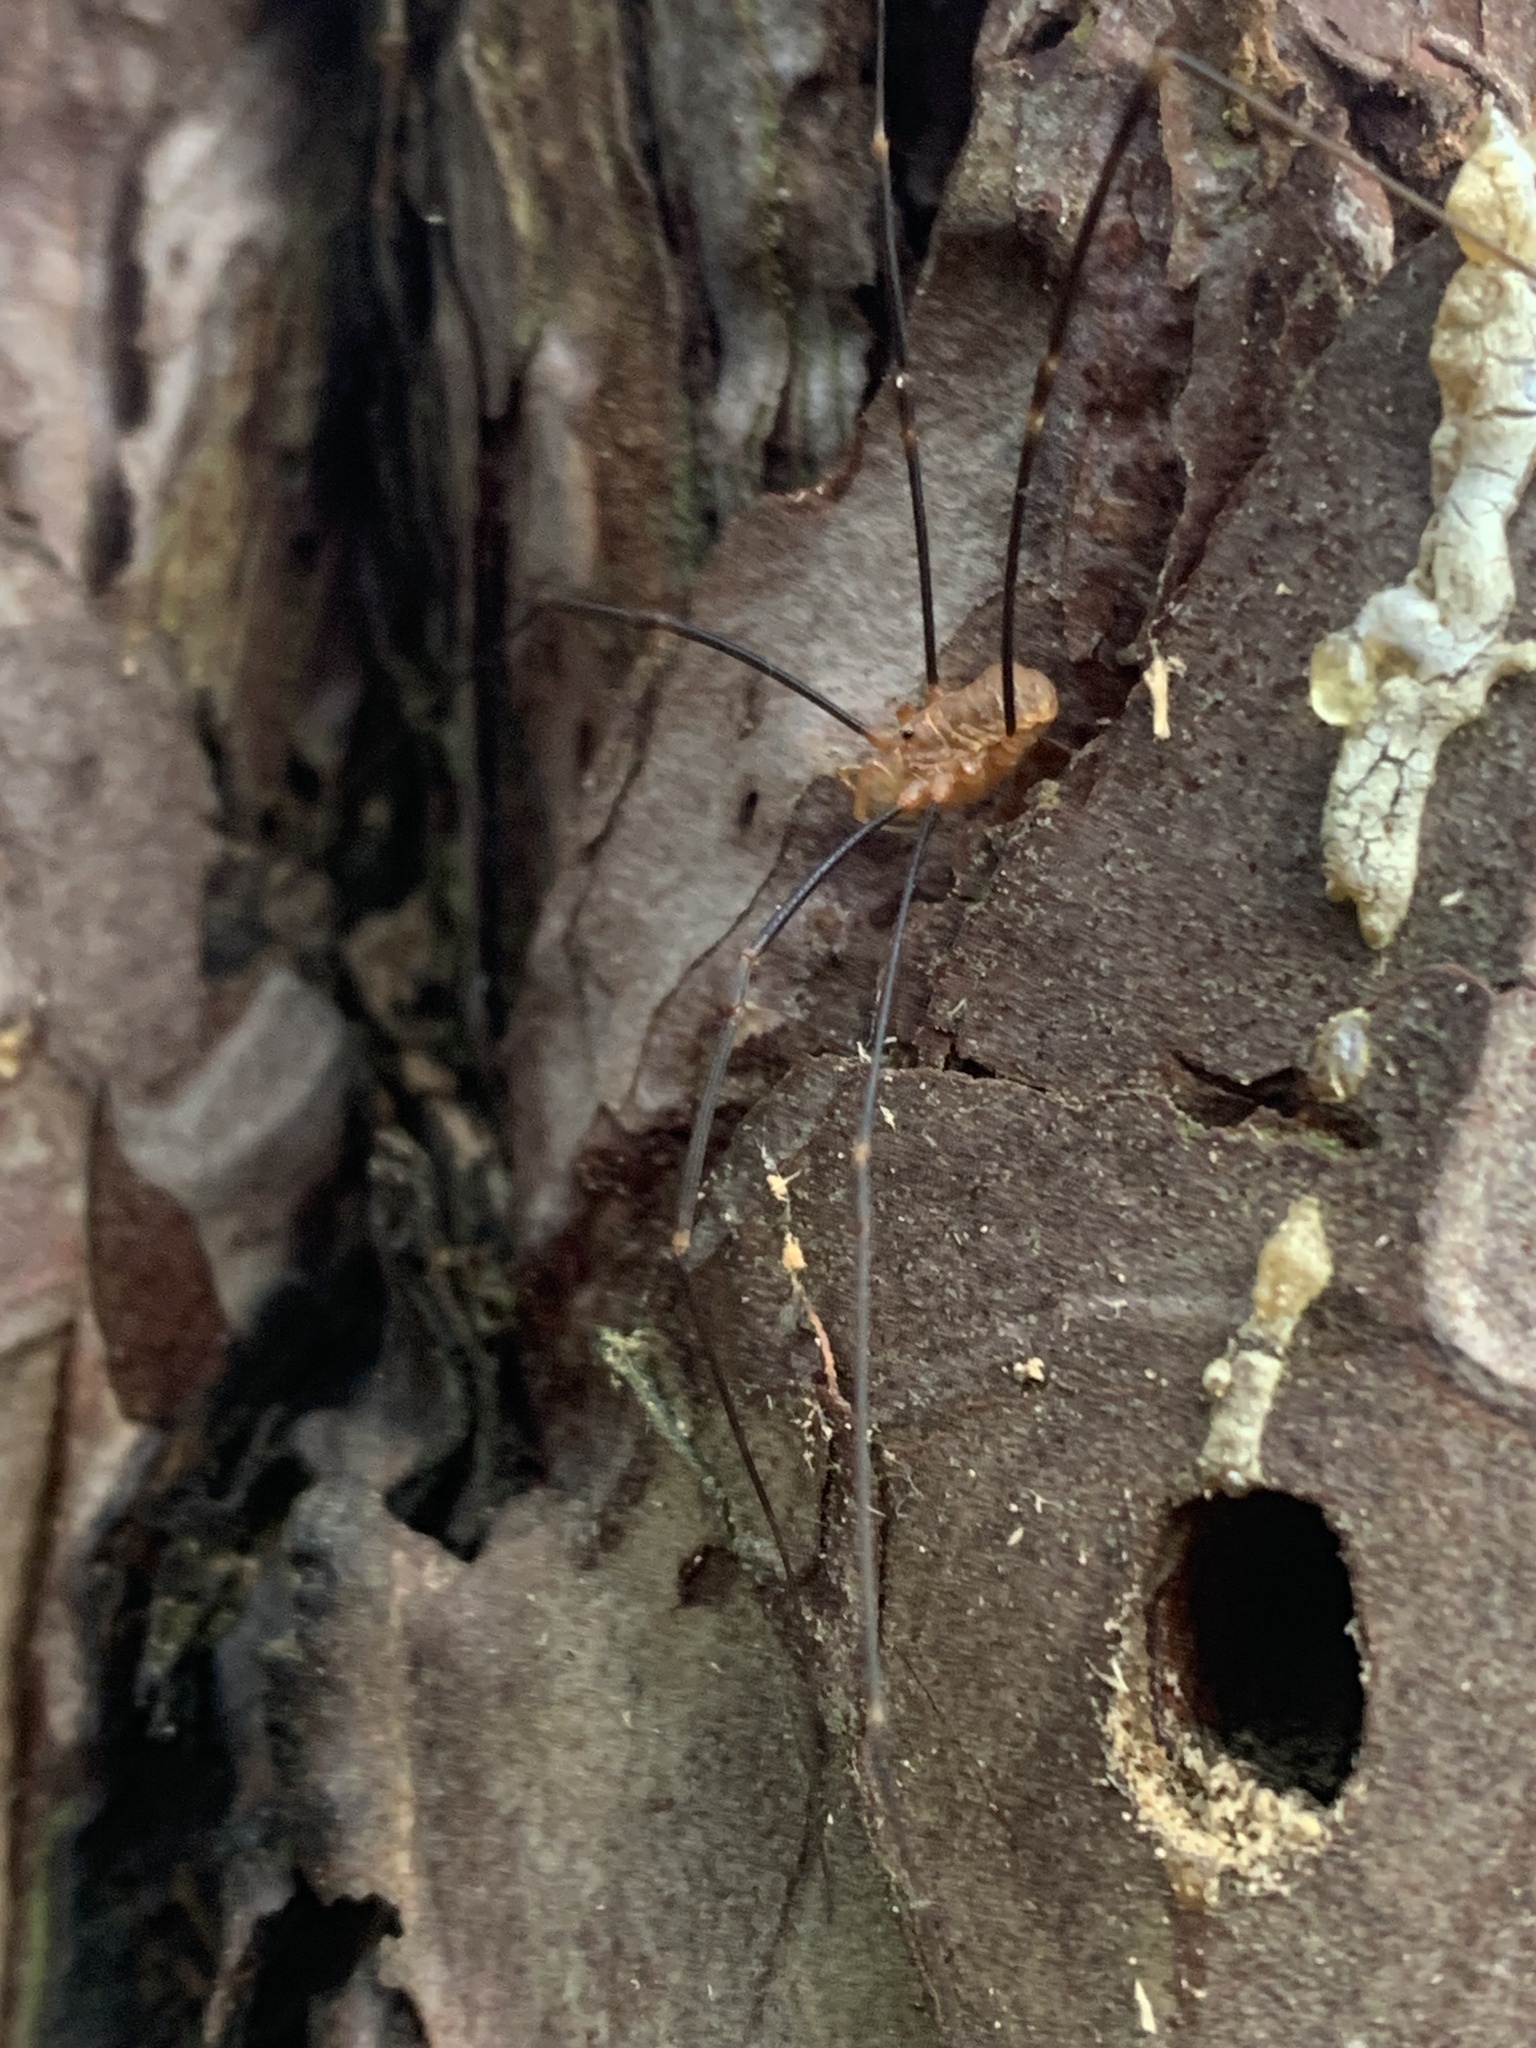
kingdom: Animalia
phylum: Arthropoda
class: Arachnida
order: Opiliones
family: Phalangiidae
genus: Opilio
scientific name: Opilio canestrinii
